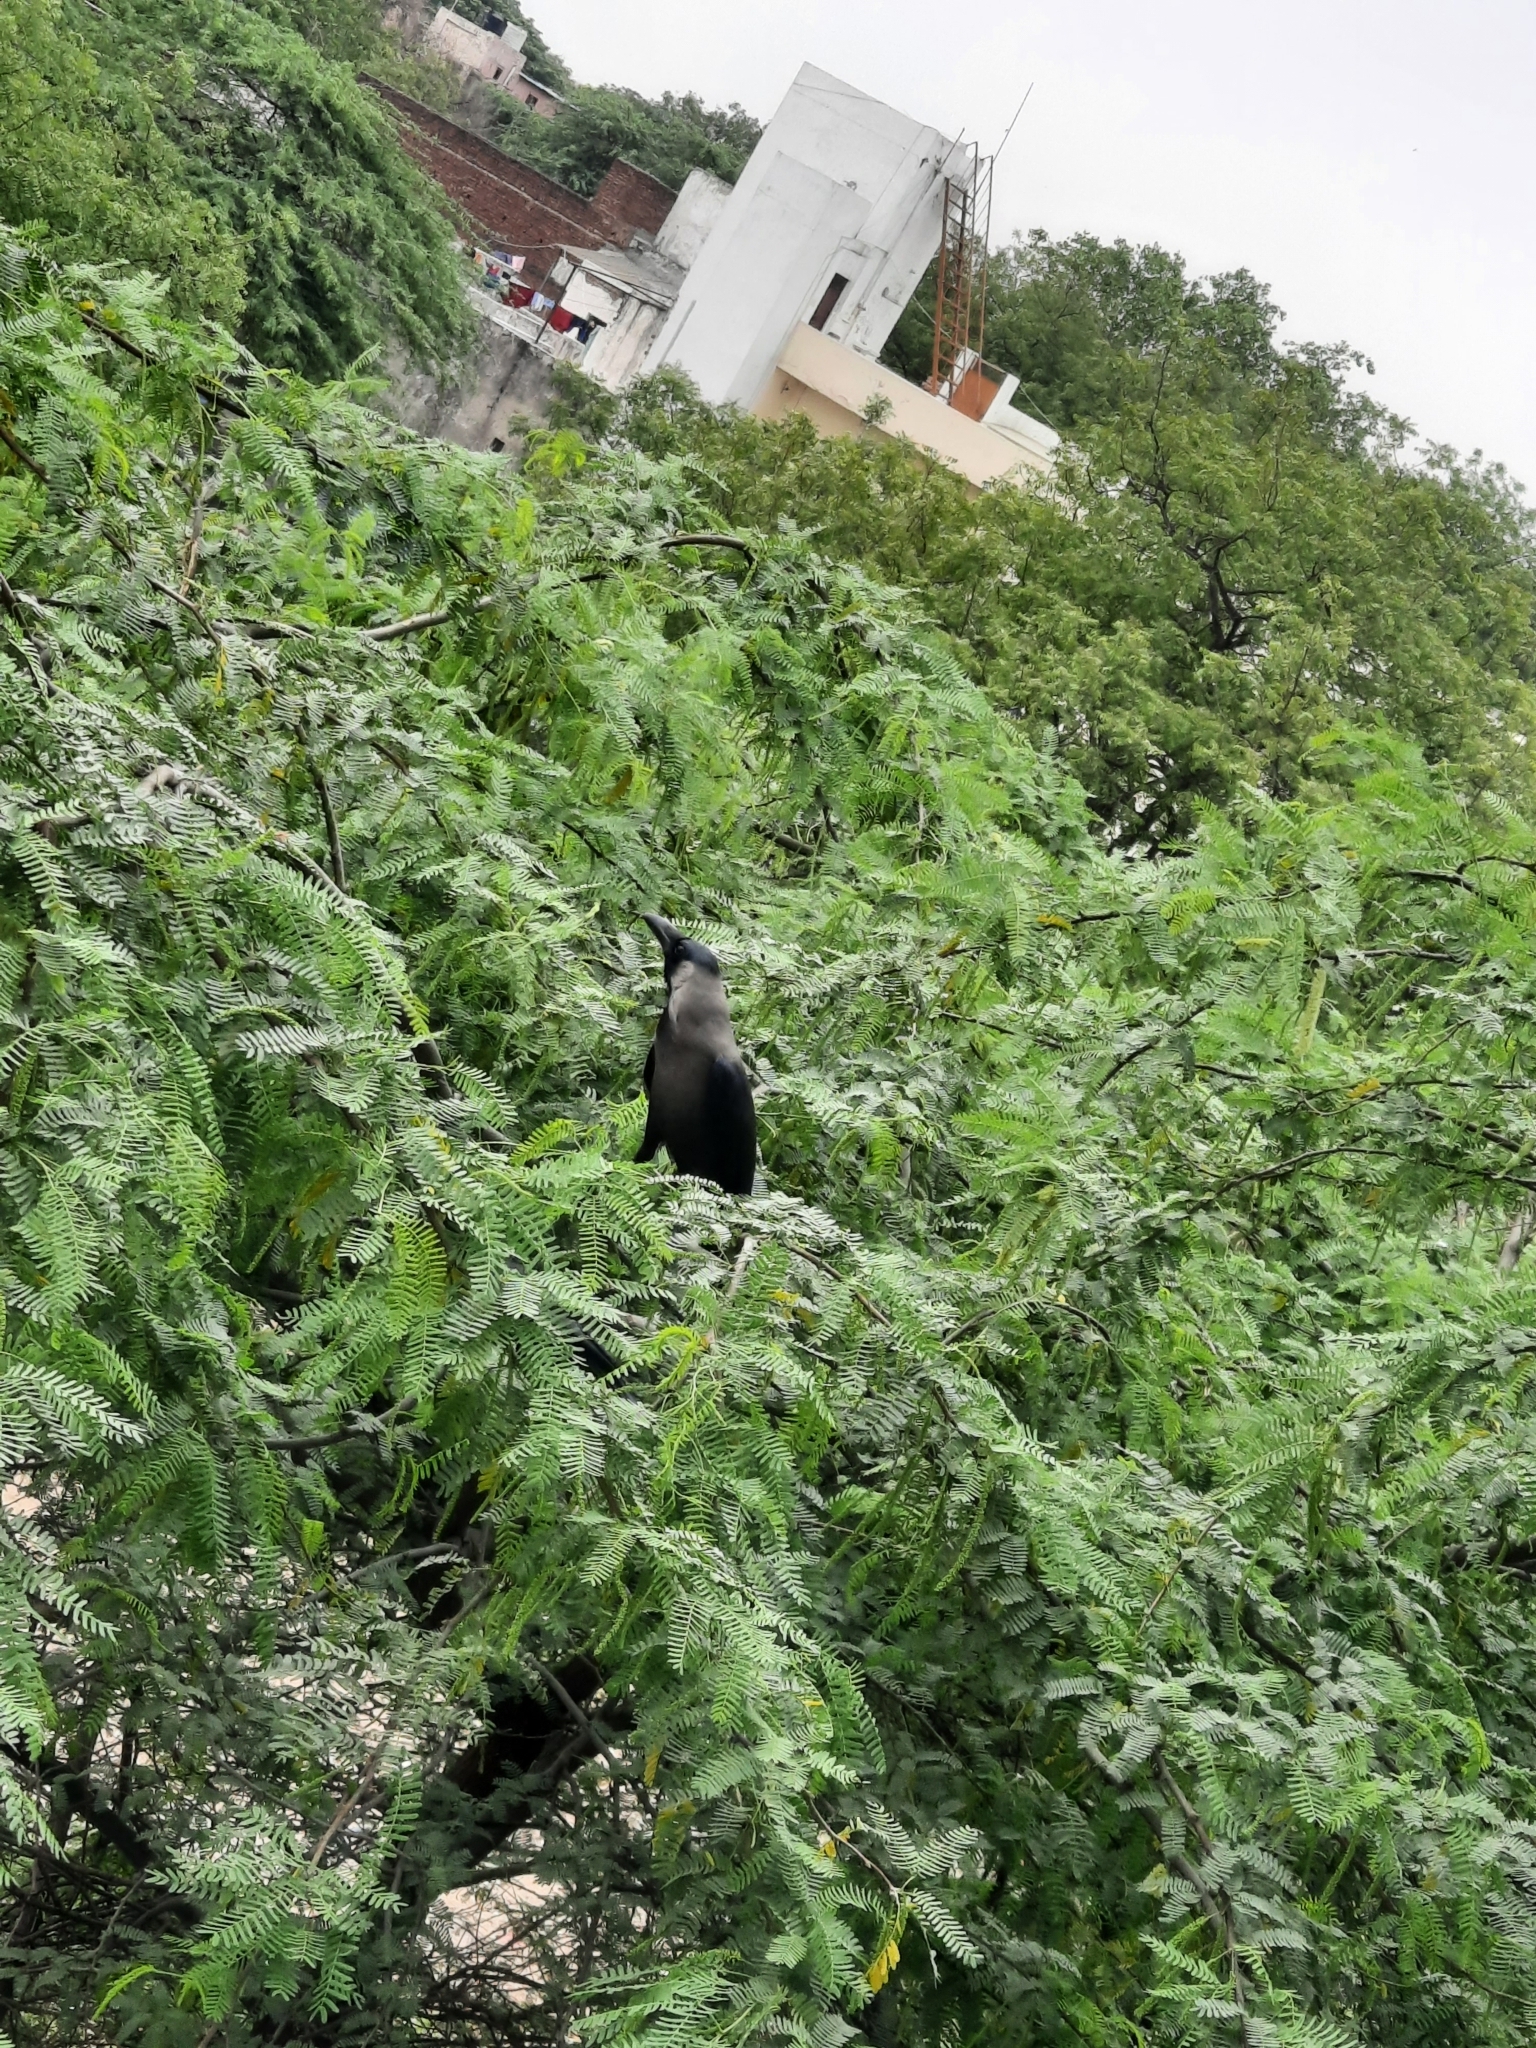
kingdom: Animalia
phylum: Chordata
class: Aves
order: Passeriformes
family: Corvidae
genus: Corvus
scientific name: Corvus splendens
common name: House crow
